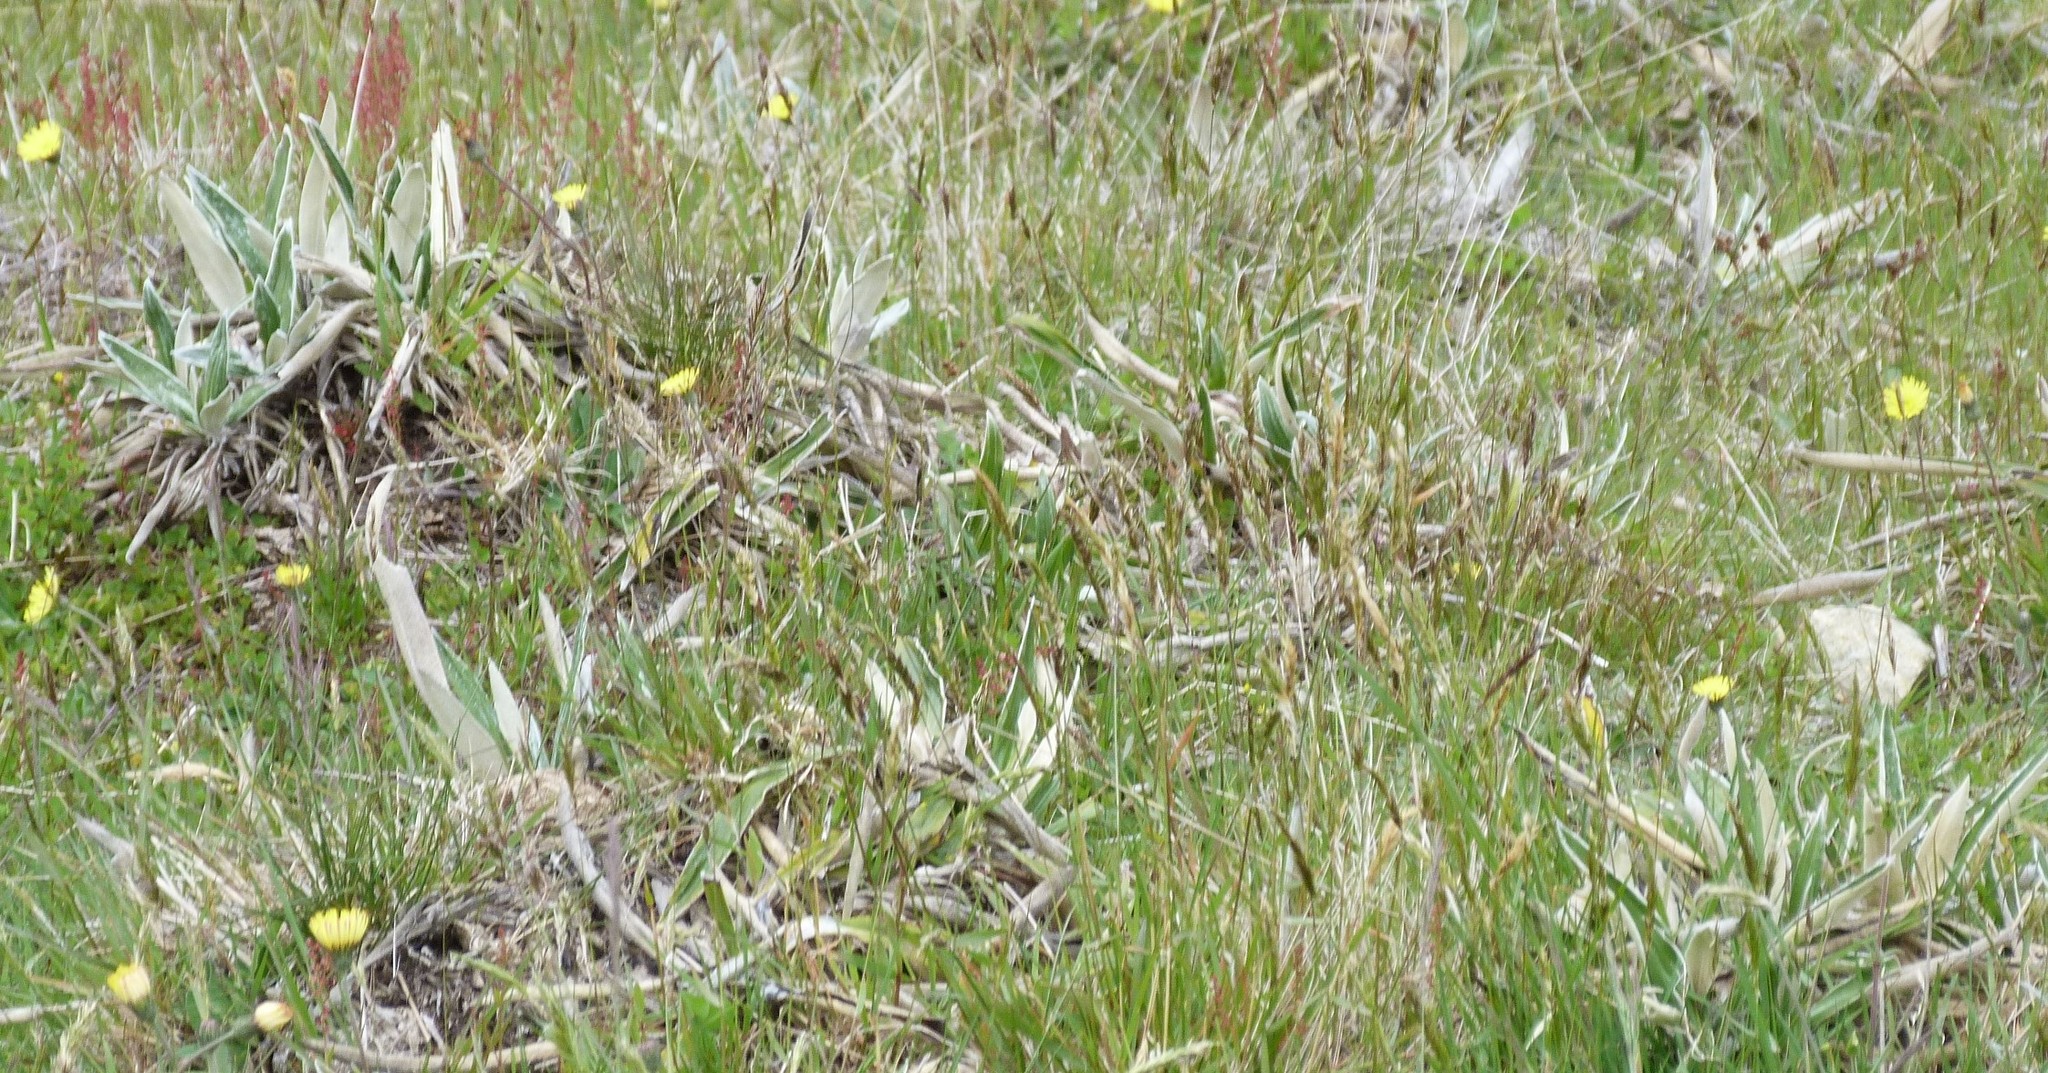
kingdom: Plantae
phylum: Tracheophyta
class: Magnoliopsida
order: Asterales
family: Asteraceae
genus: Celmisia
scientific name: Celmisia spectabilis
